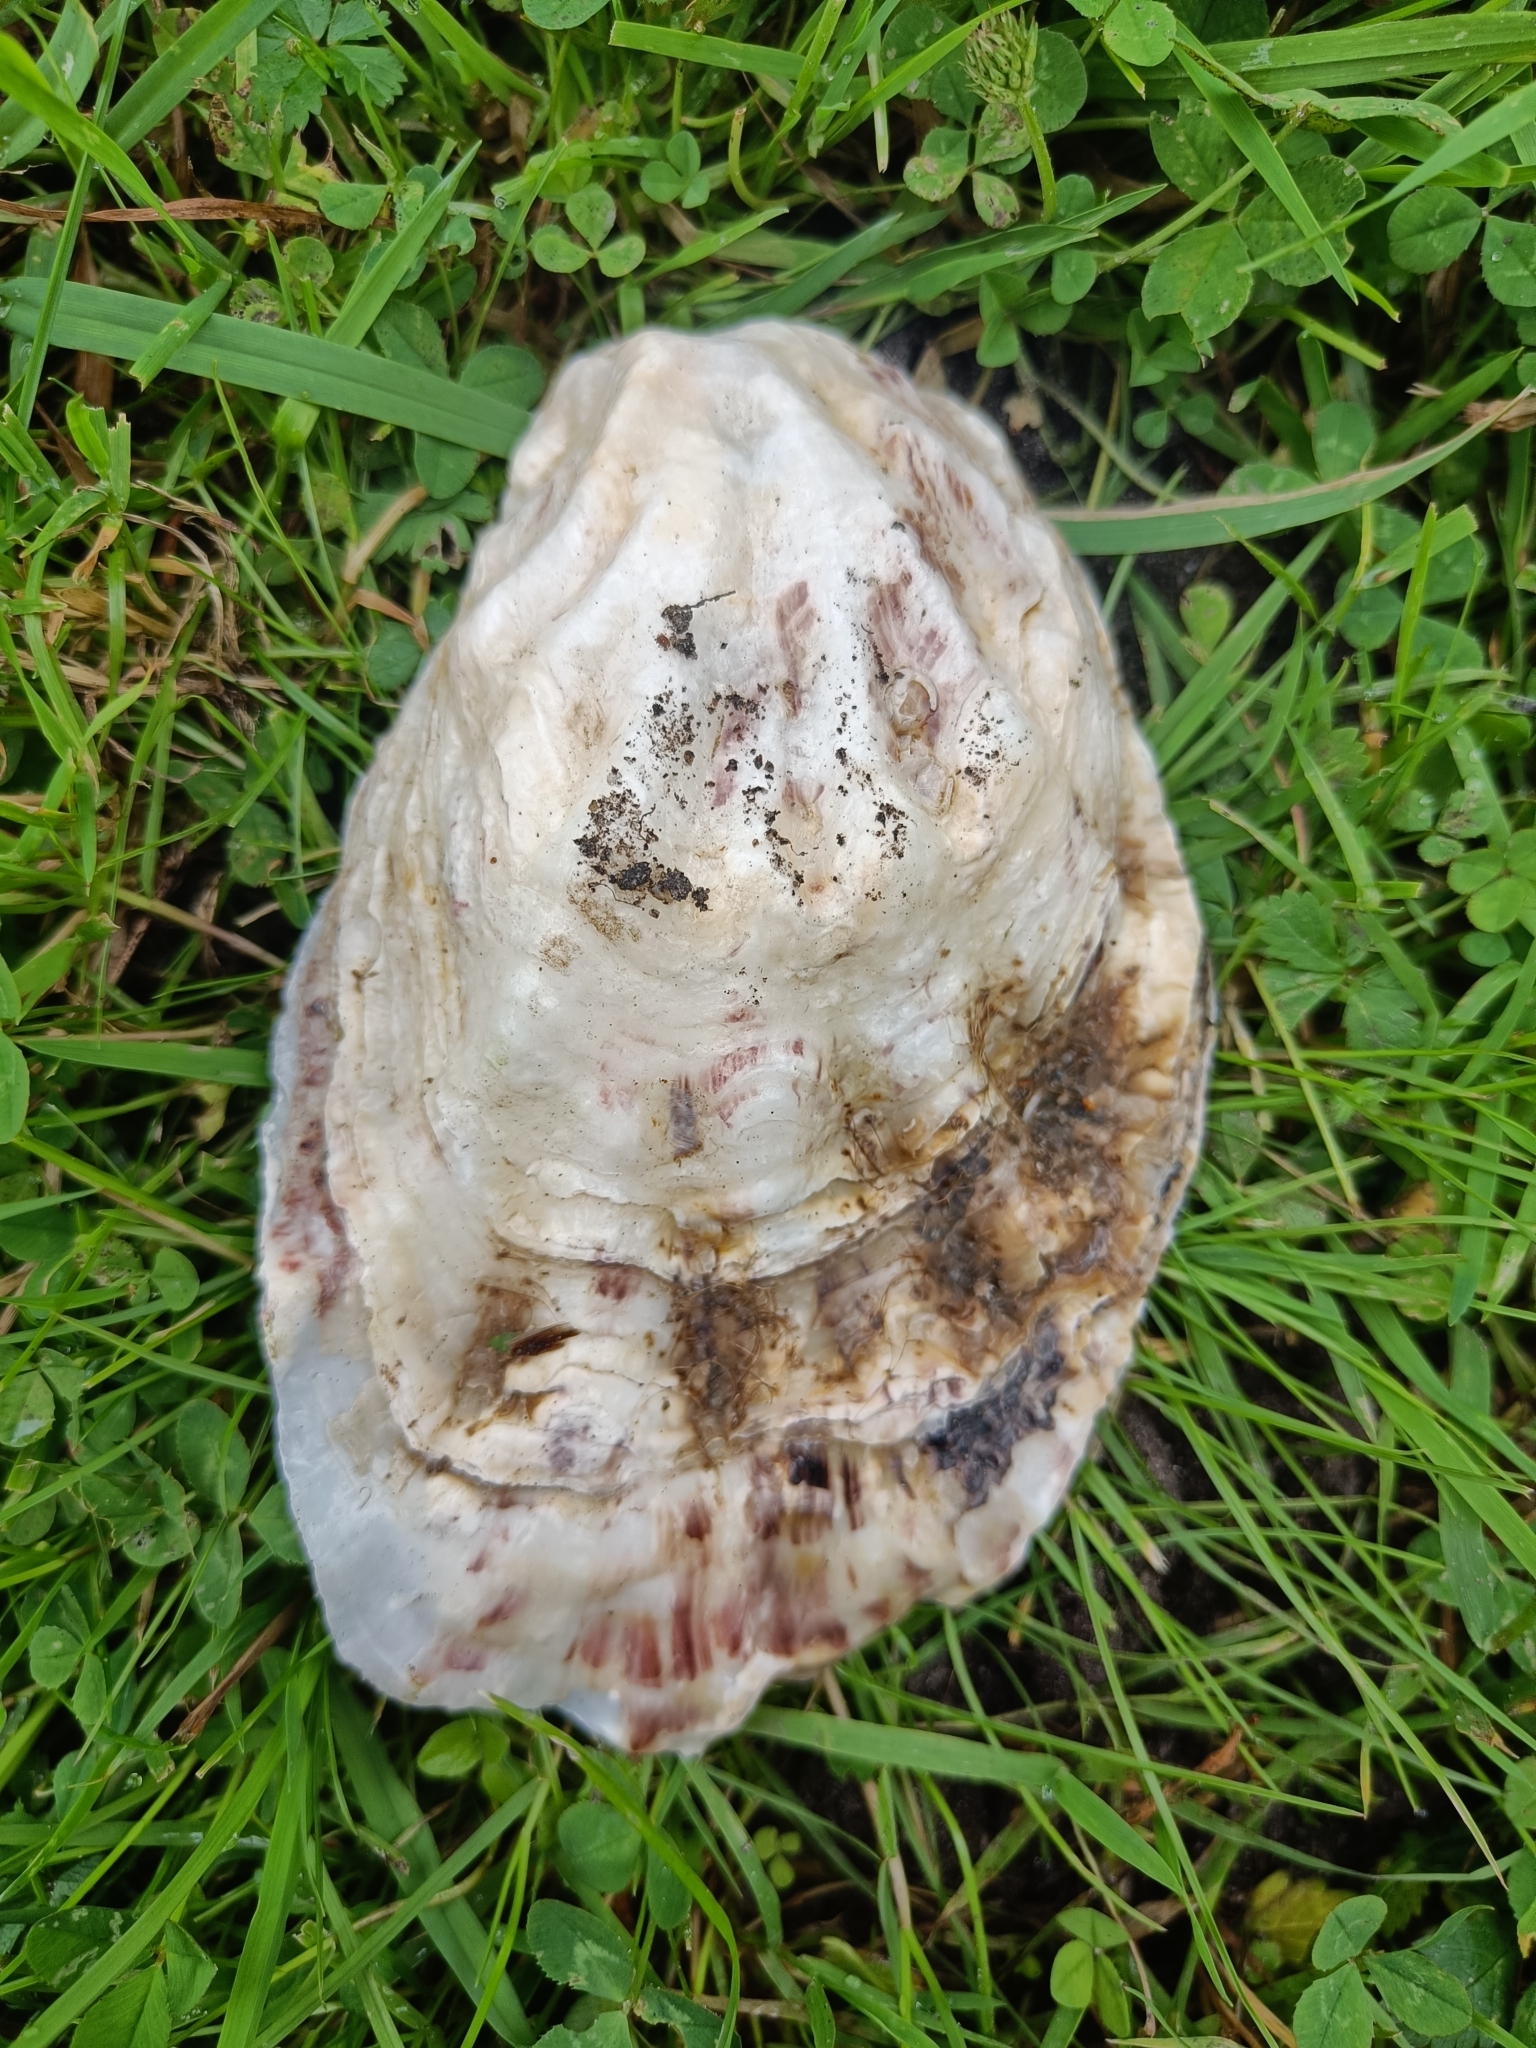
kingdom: Animalia
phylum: Mollusca
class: Bivalvia
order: Ostreida
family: Ostreidae
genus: Magallana
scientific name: Magallana gigas
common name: Pacific oyster
